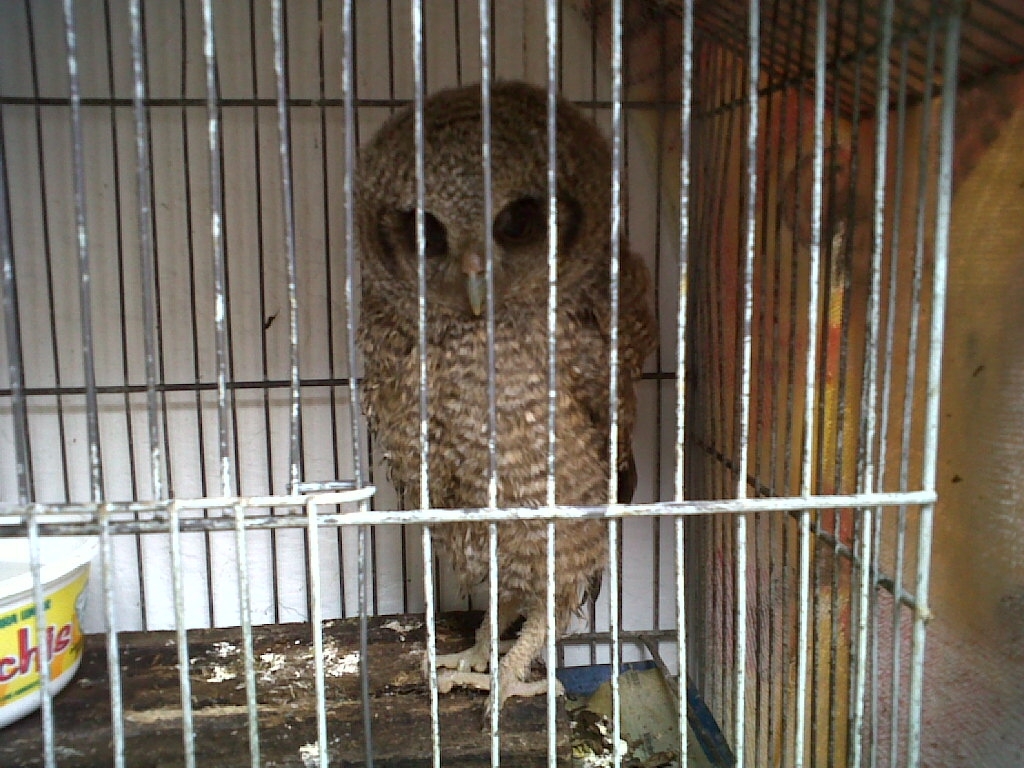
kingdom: Animalia
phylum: Chordata
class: Aves
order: Strigiformes
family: Strigidae
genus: Megascops
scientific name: Megascops choliba
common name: Tropical screech-owl
